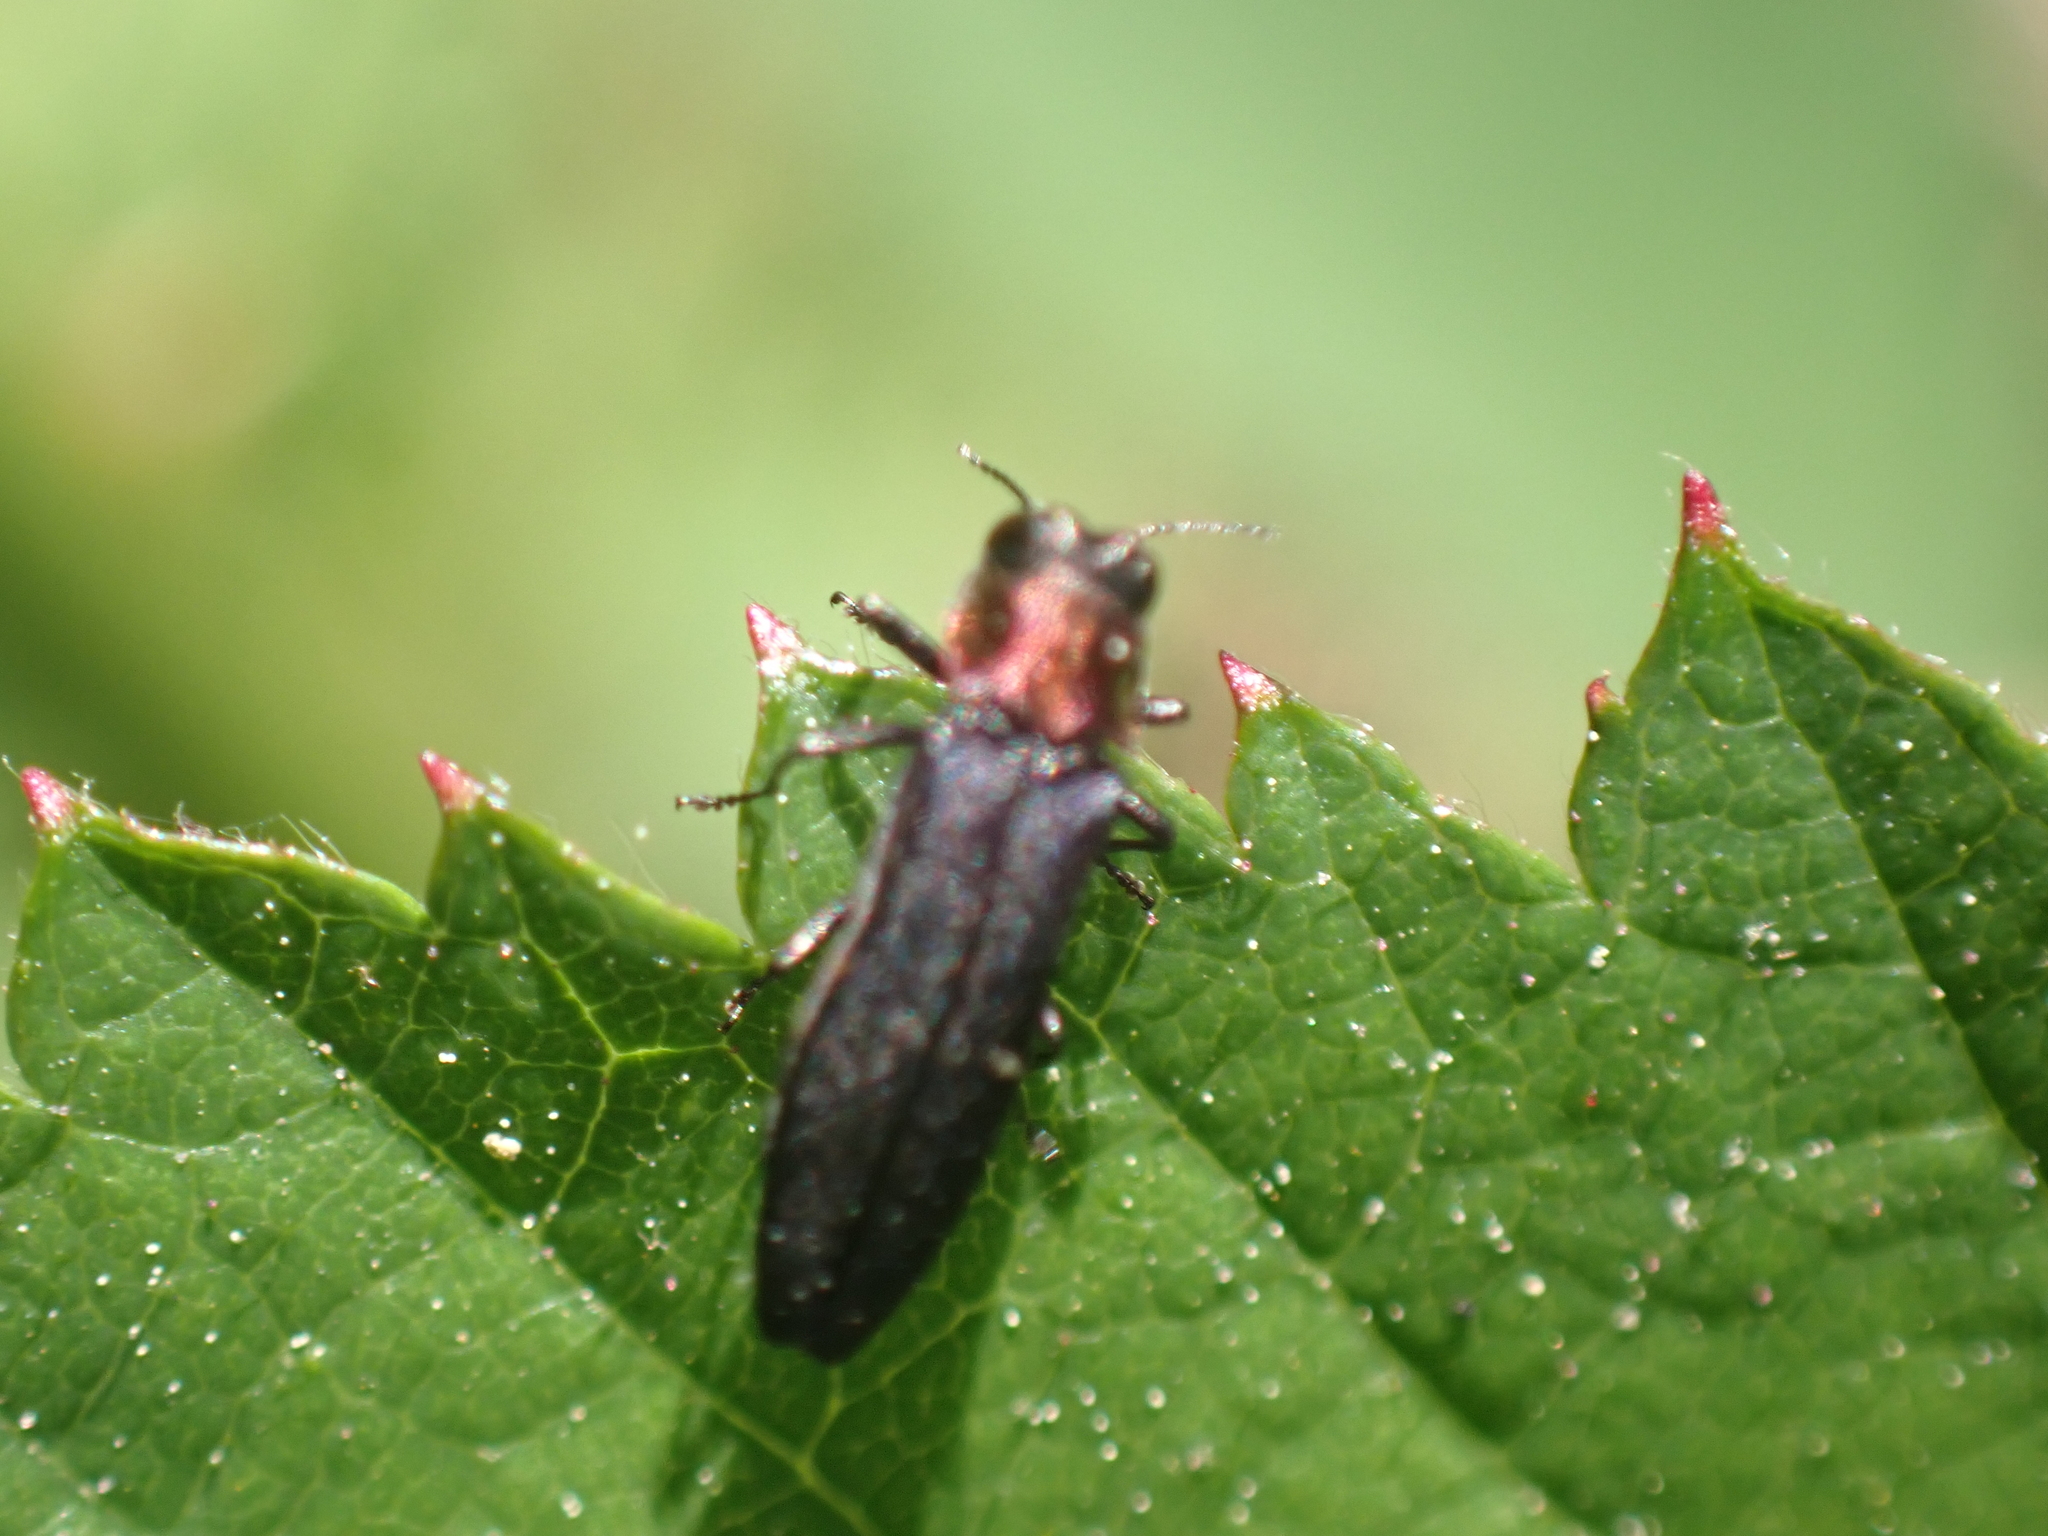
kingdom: Animalia
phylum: Arthropoda
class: Insecta
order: Coleoptera
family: Buprestidae
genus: Agrilus
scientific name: Agrilus ruficollis
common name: Red-necked cane borer beetle
